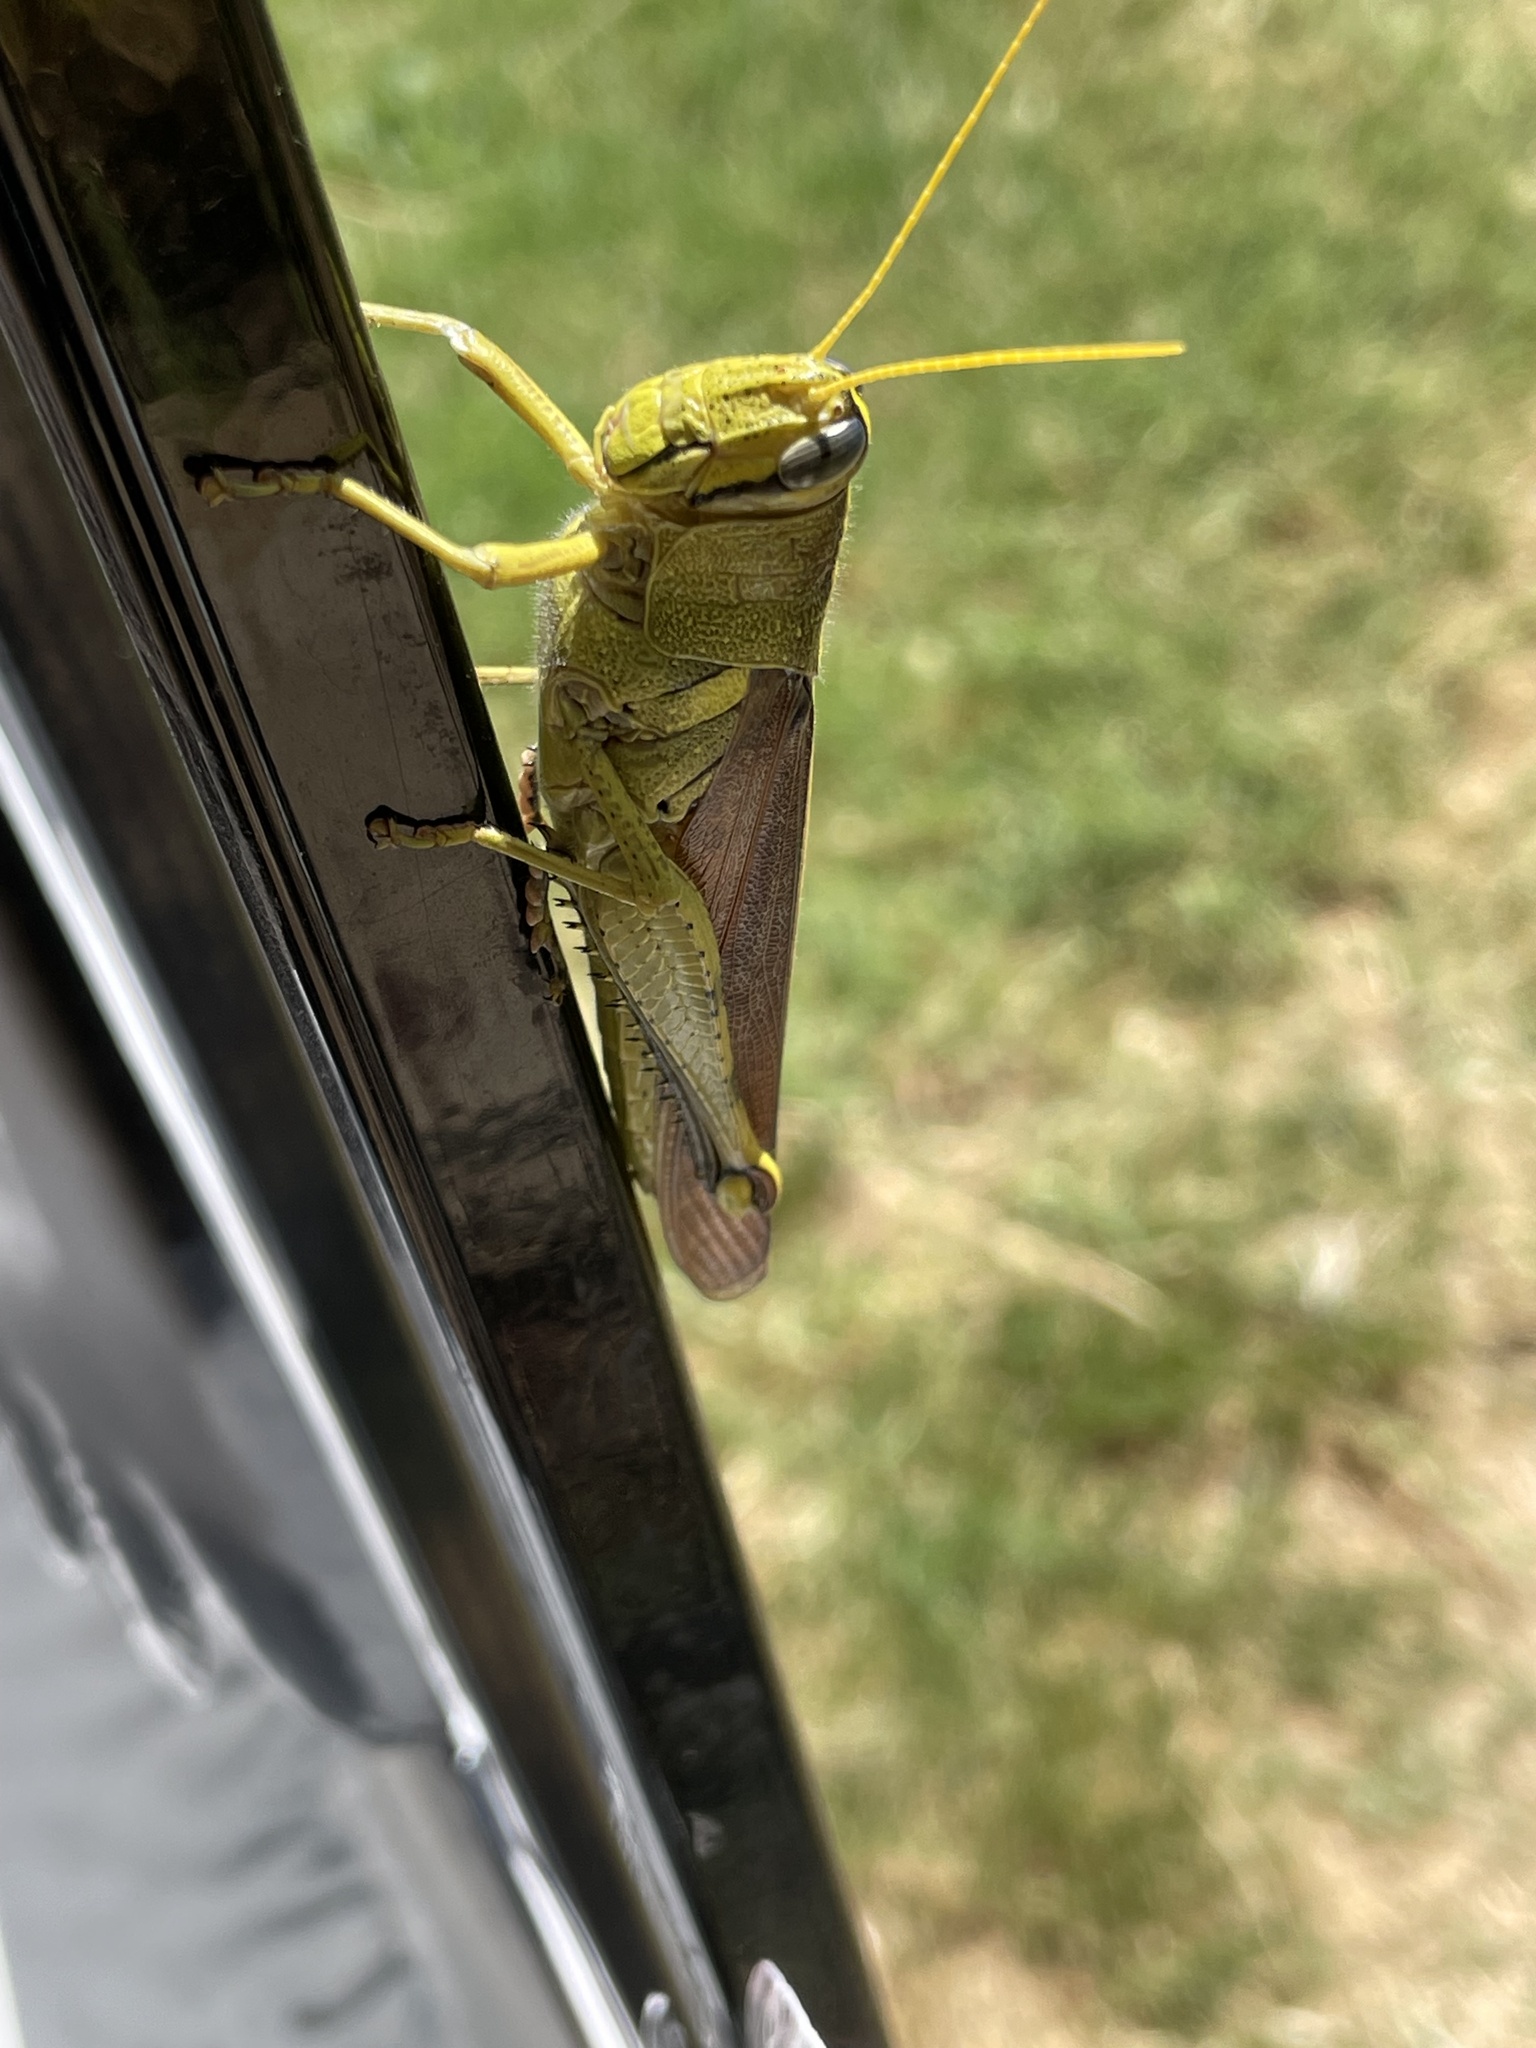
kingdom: Animalia
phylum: Arthropoda
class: Insecta
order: Orthoptera
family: Acrididae
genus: Schistocerca
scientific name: Schistocerca obscura
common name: Obscure bird grasshopper
